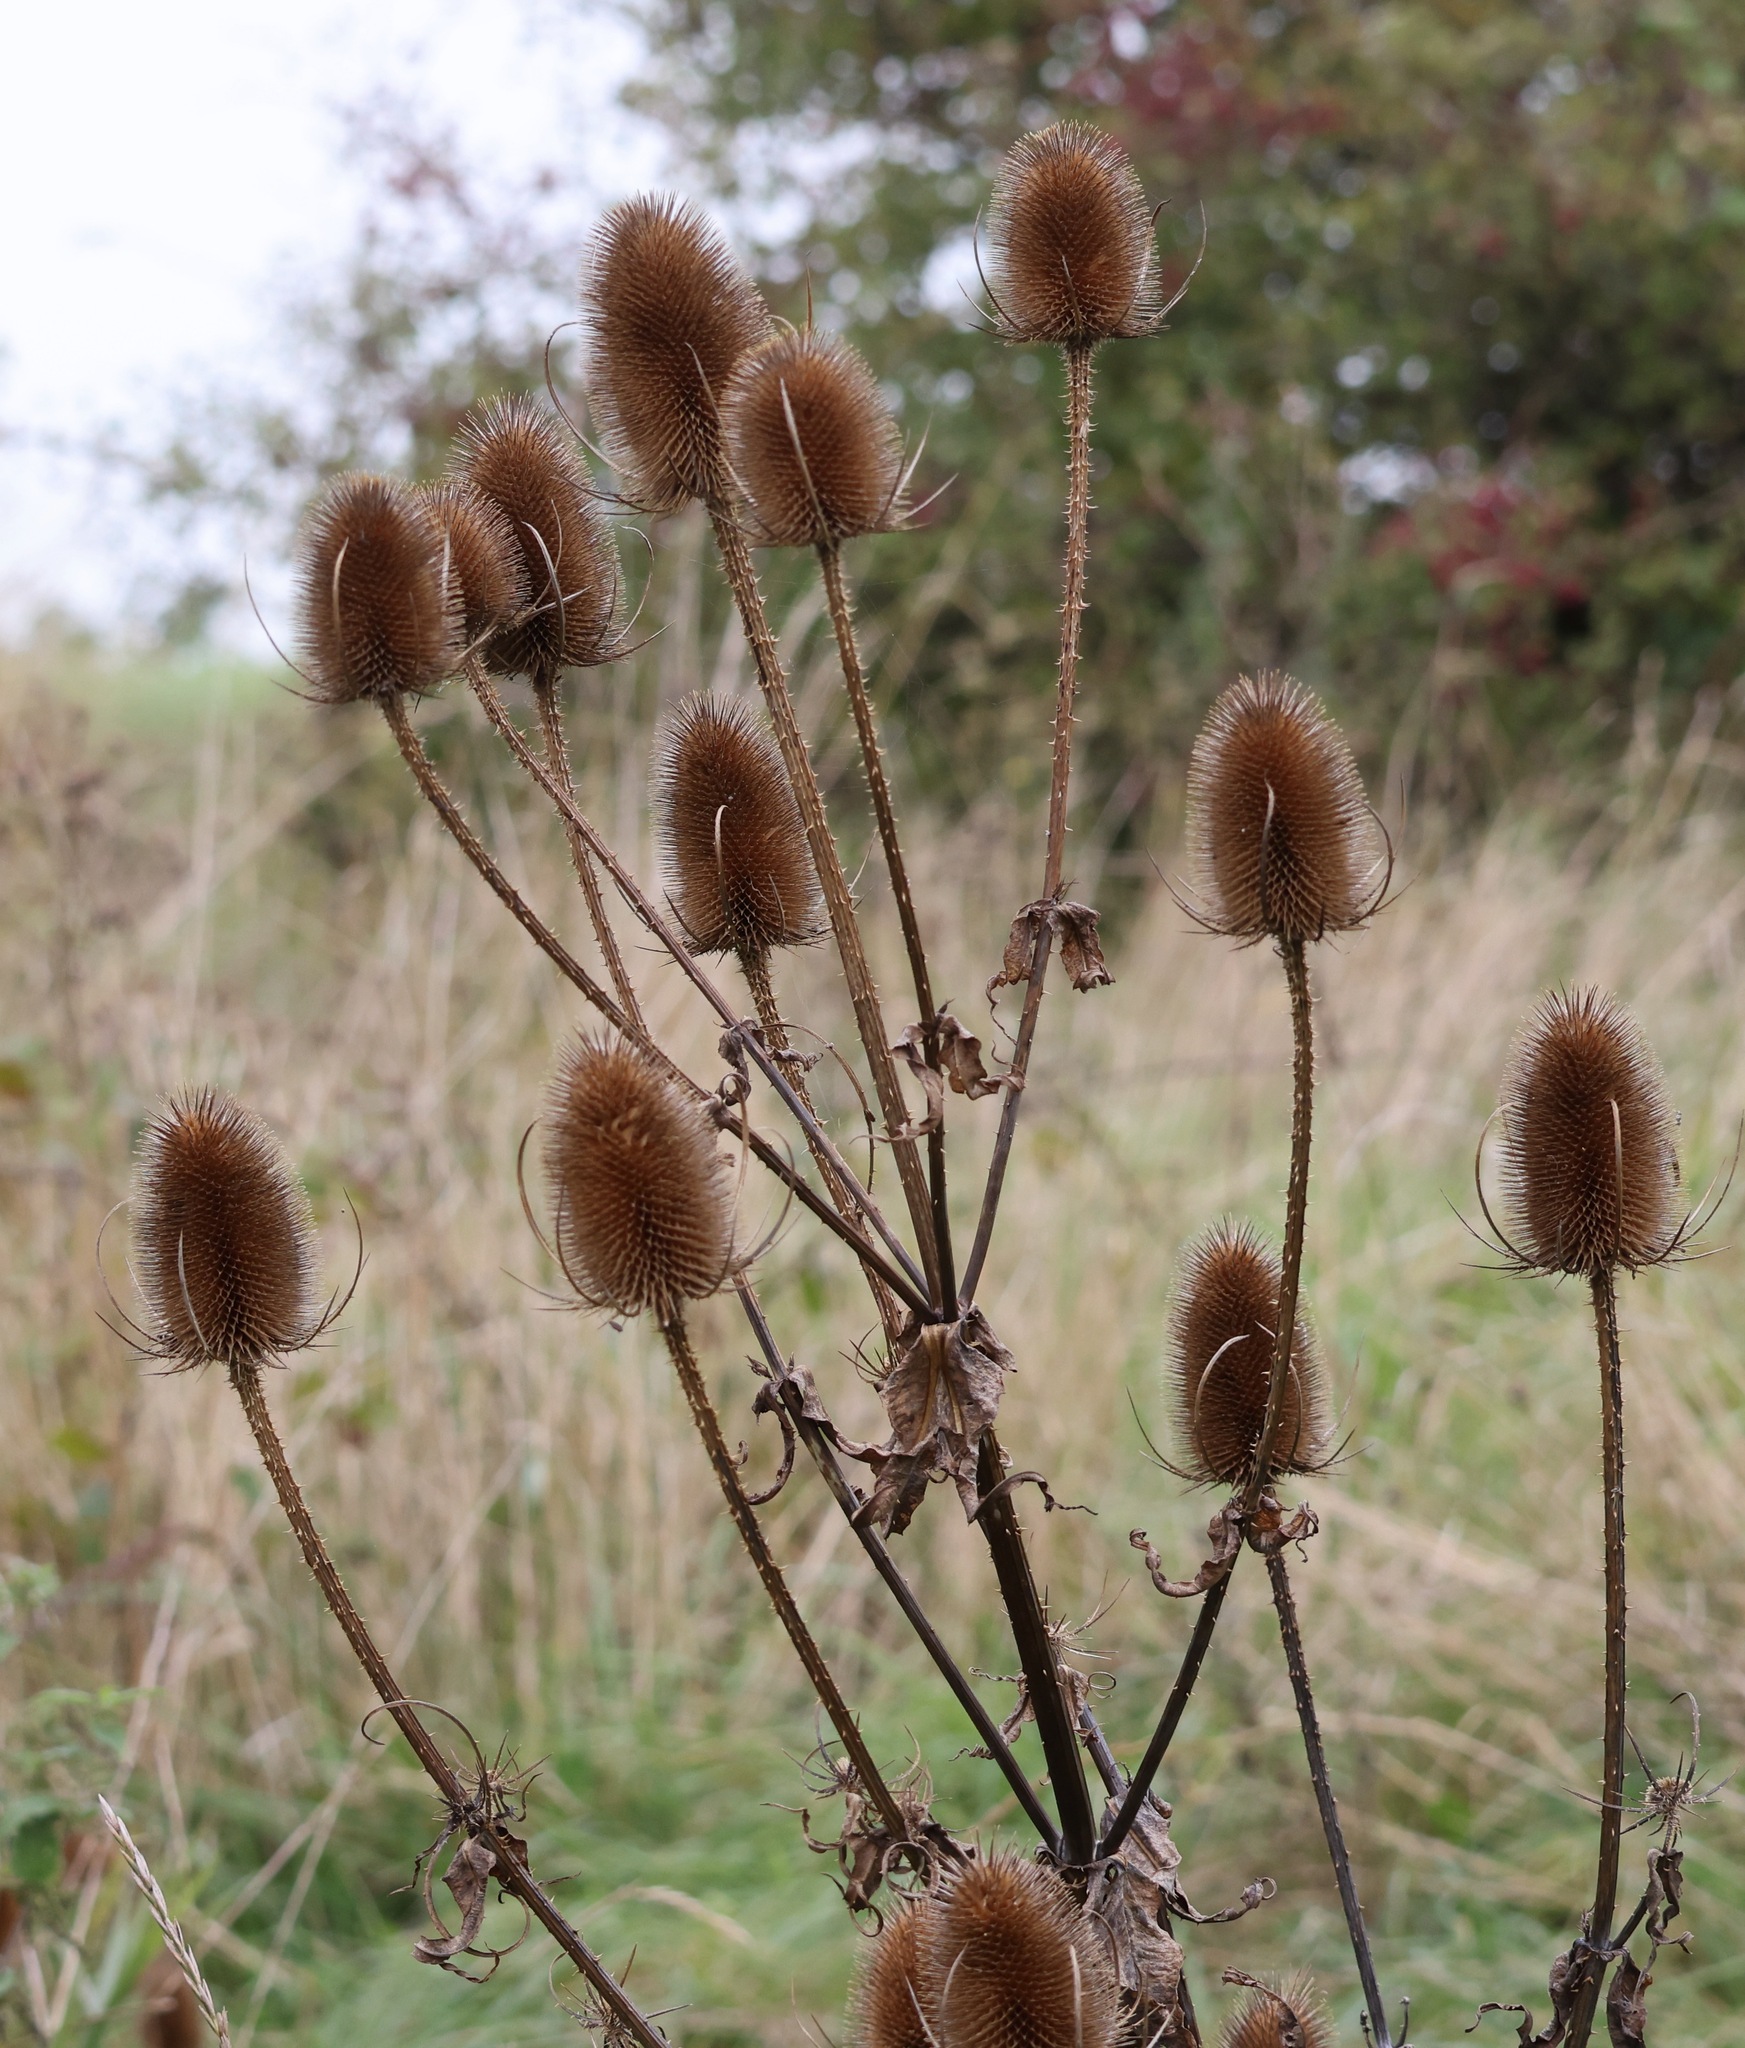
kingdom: Plantae
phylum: Tracheophyta
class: Magnoliopsida
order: Dipsacales
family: Caprifoliaceae
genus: Dipsacus
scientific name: Dipsacus fullonum
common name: Teasel
